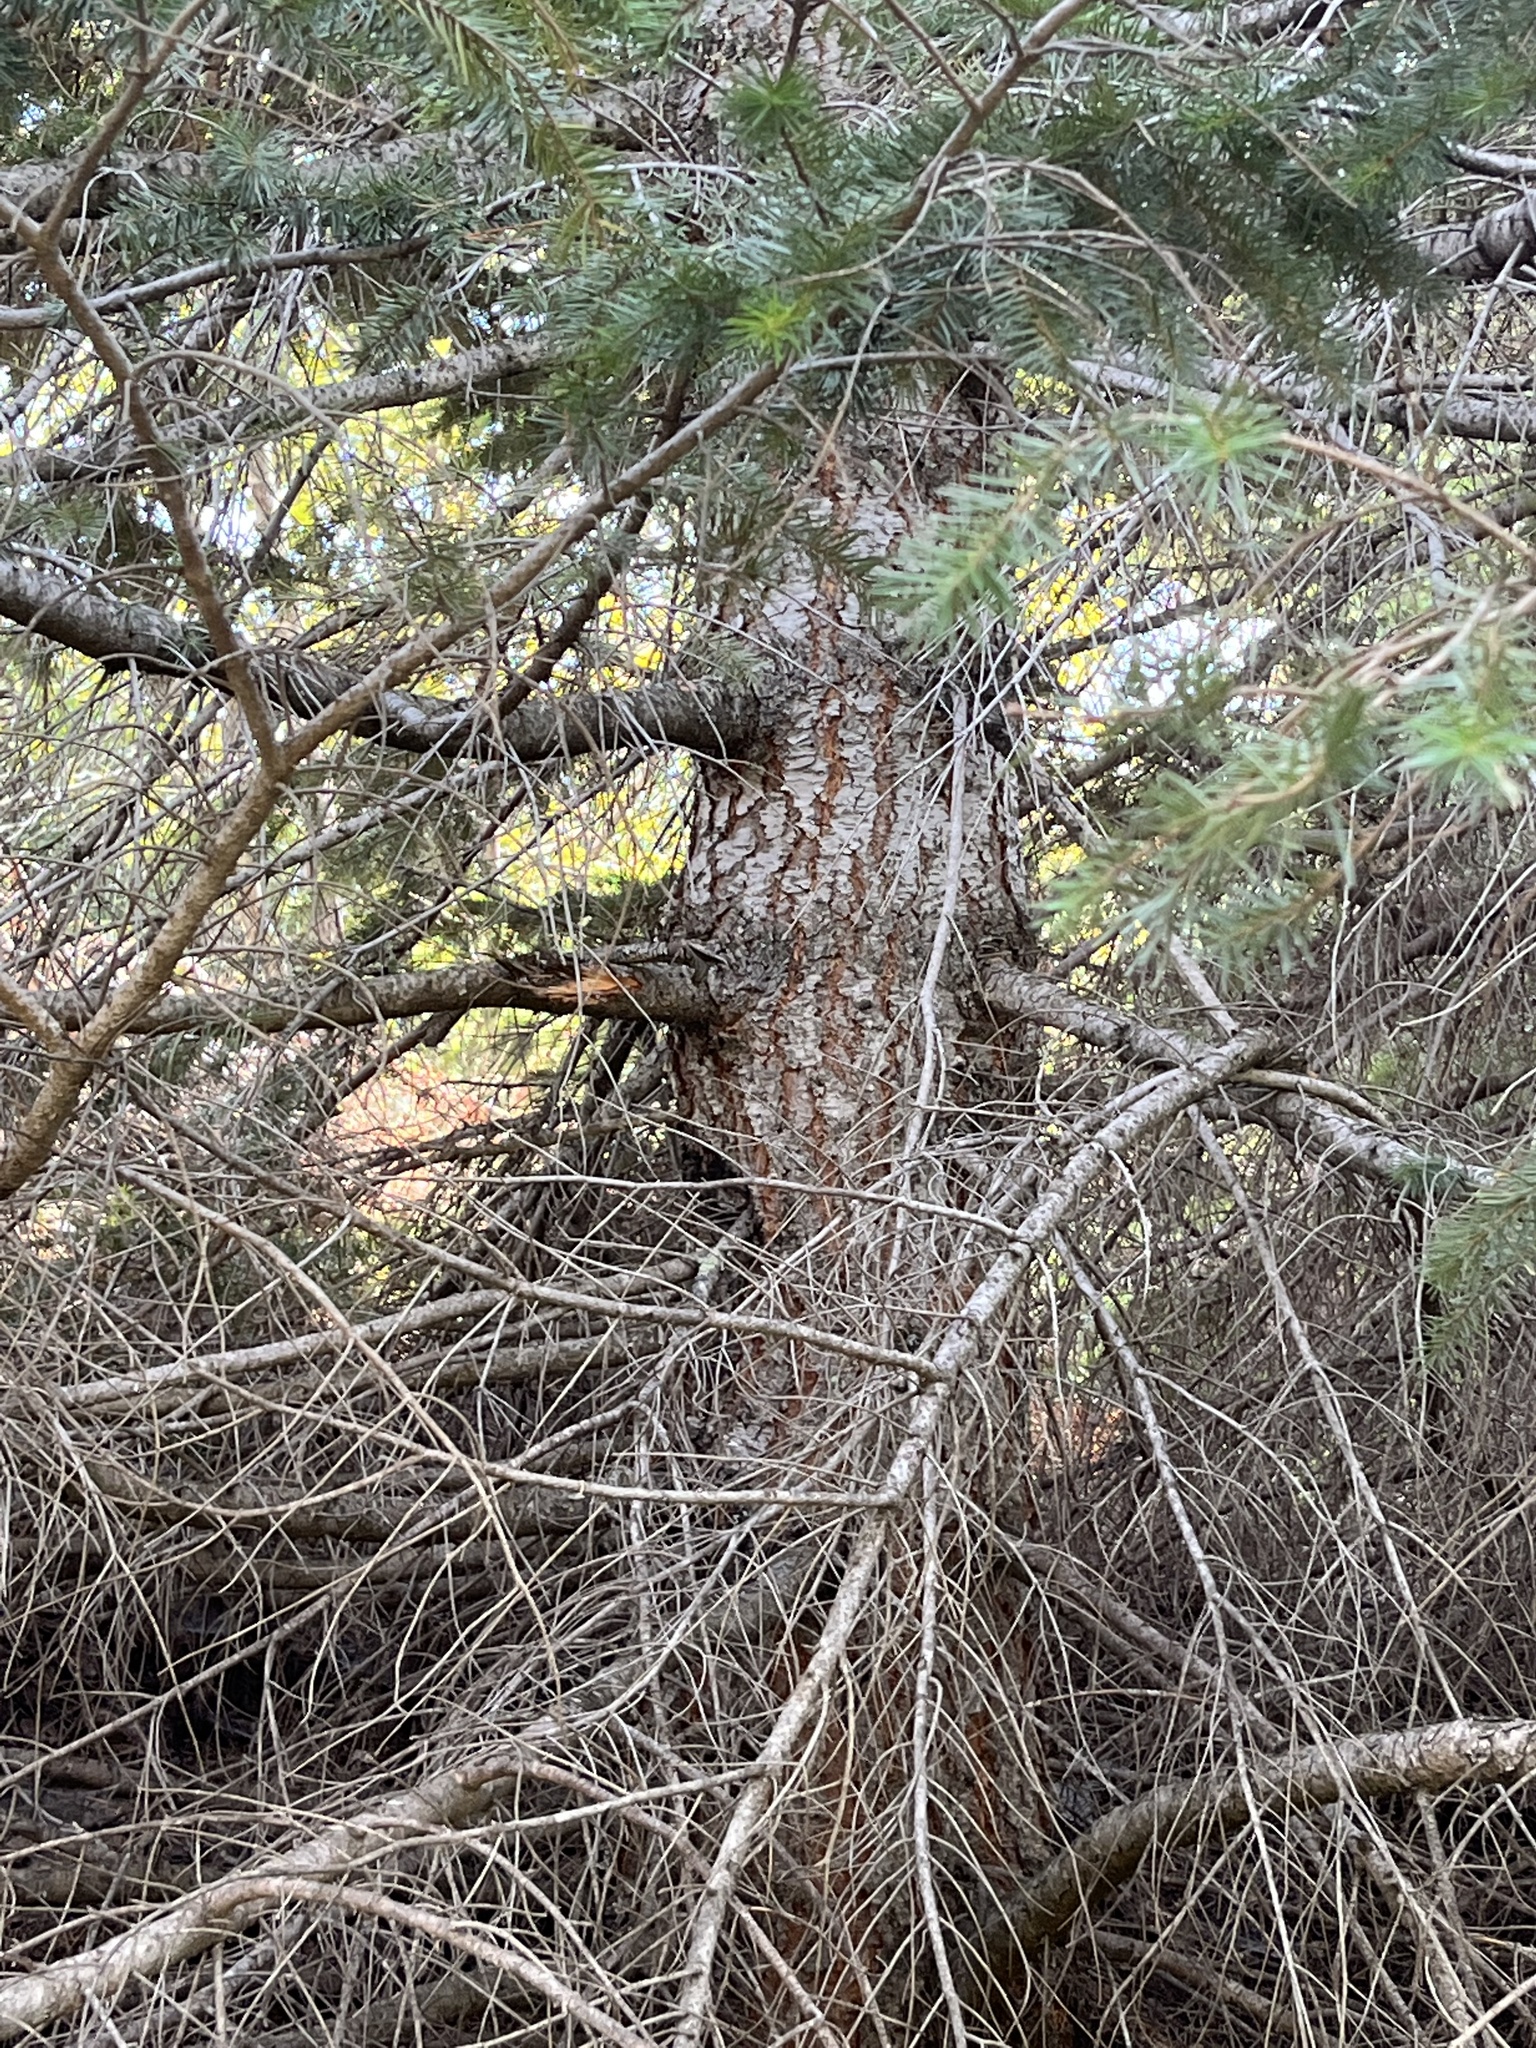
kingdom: Plantae
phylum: Tracheophyta
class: Pinopsida
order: Pinales
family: Pinaceae
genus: Pseudotsuga
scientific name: Pseudotsuga menziesii
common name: Douglas fir
